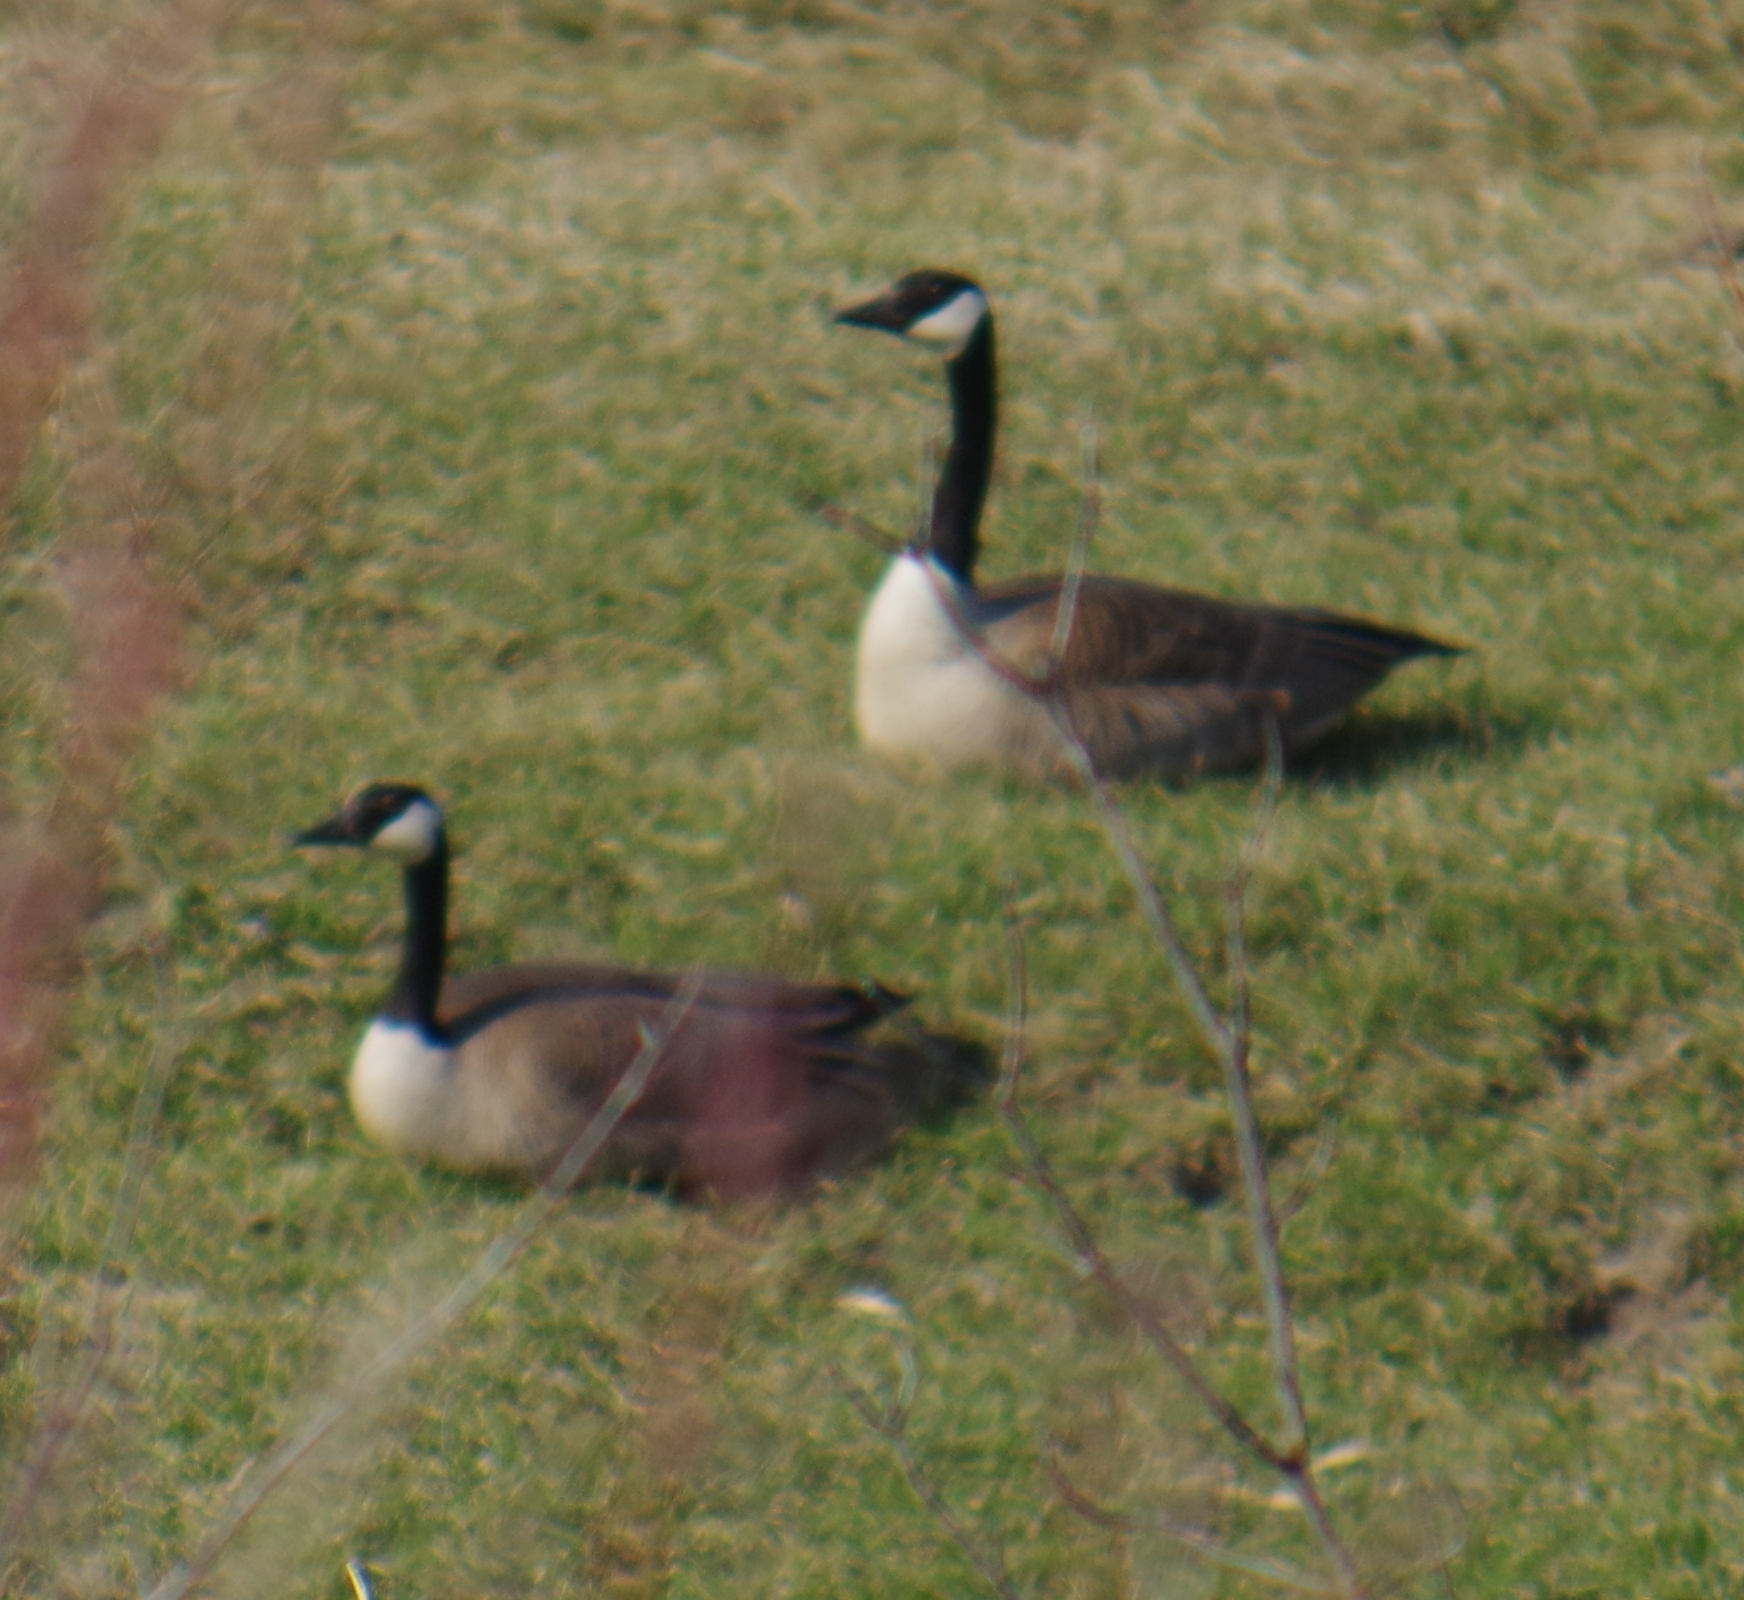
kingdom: Animalia
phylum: Chordata
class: Aves
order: Anseriformes
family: Anatidae
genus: Branta
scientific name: Branta canadensis
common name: Canada goose
